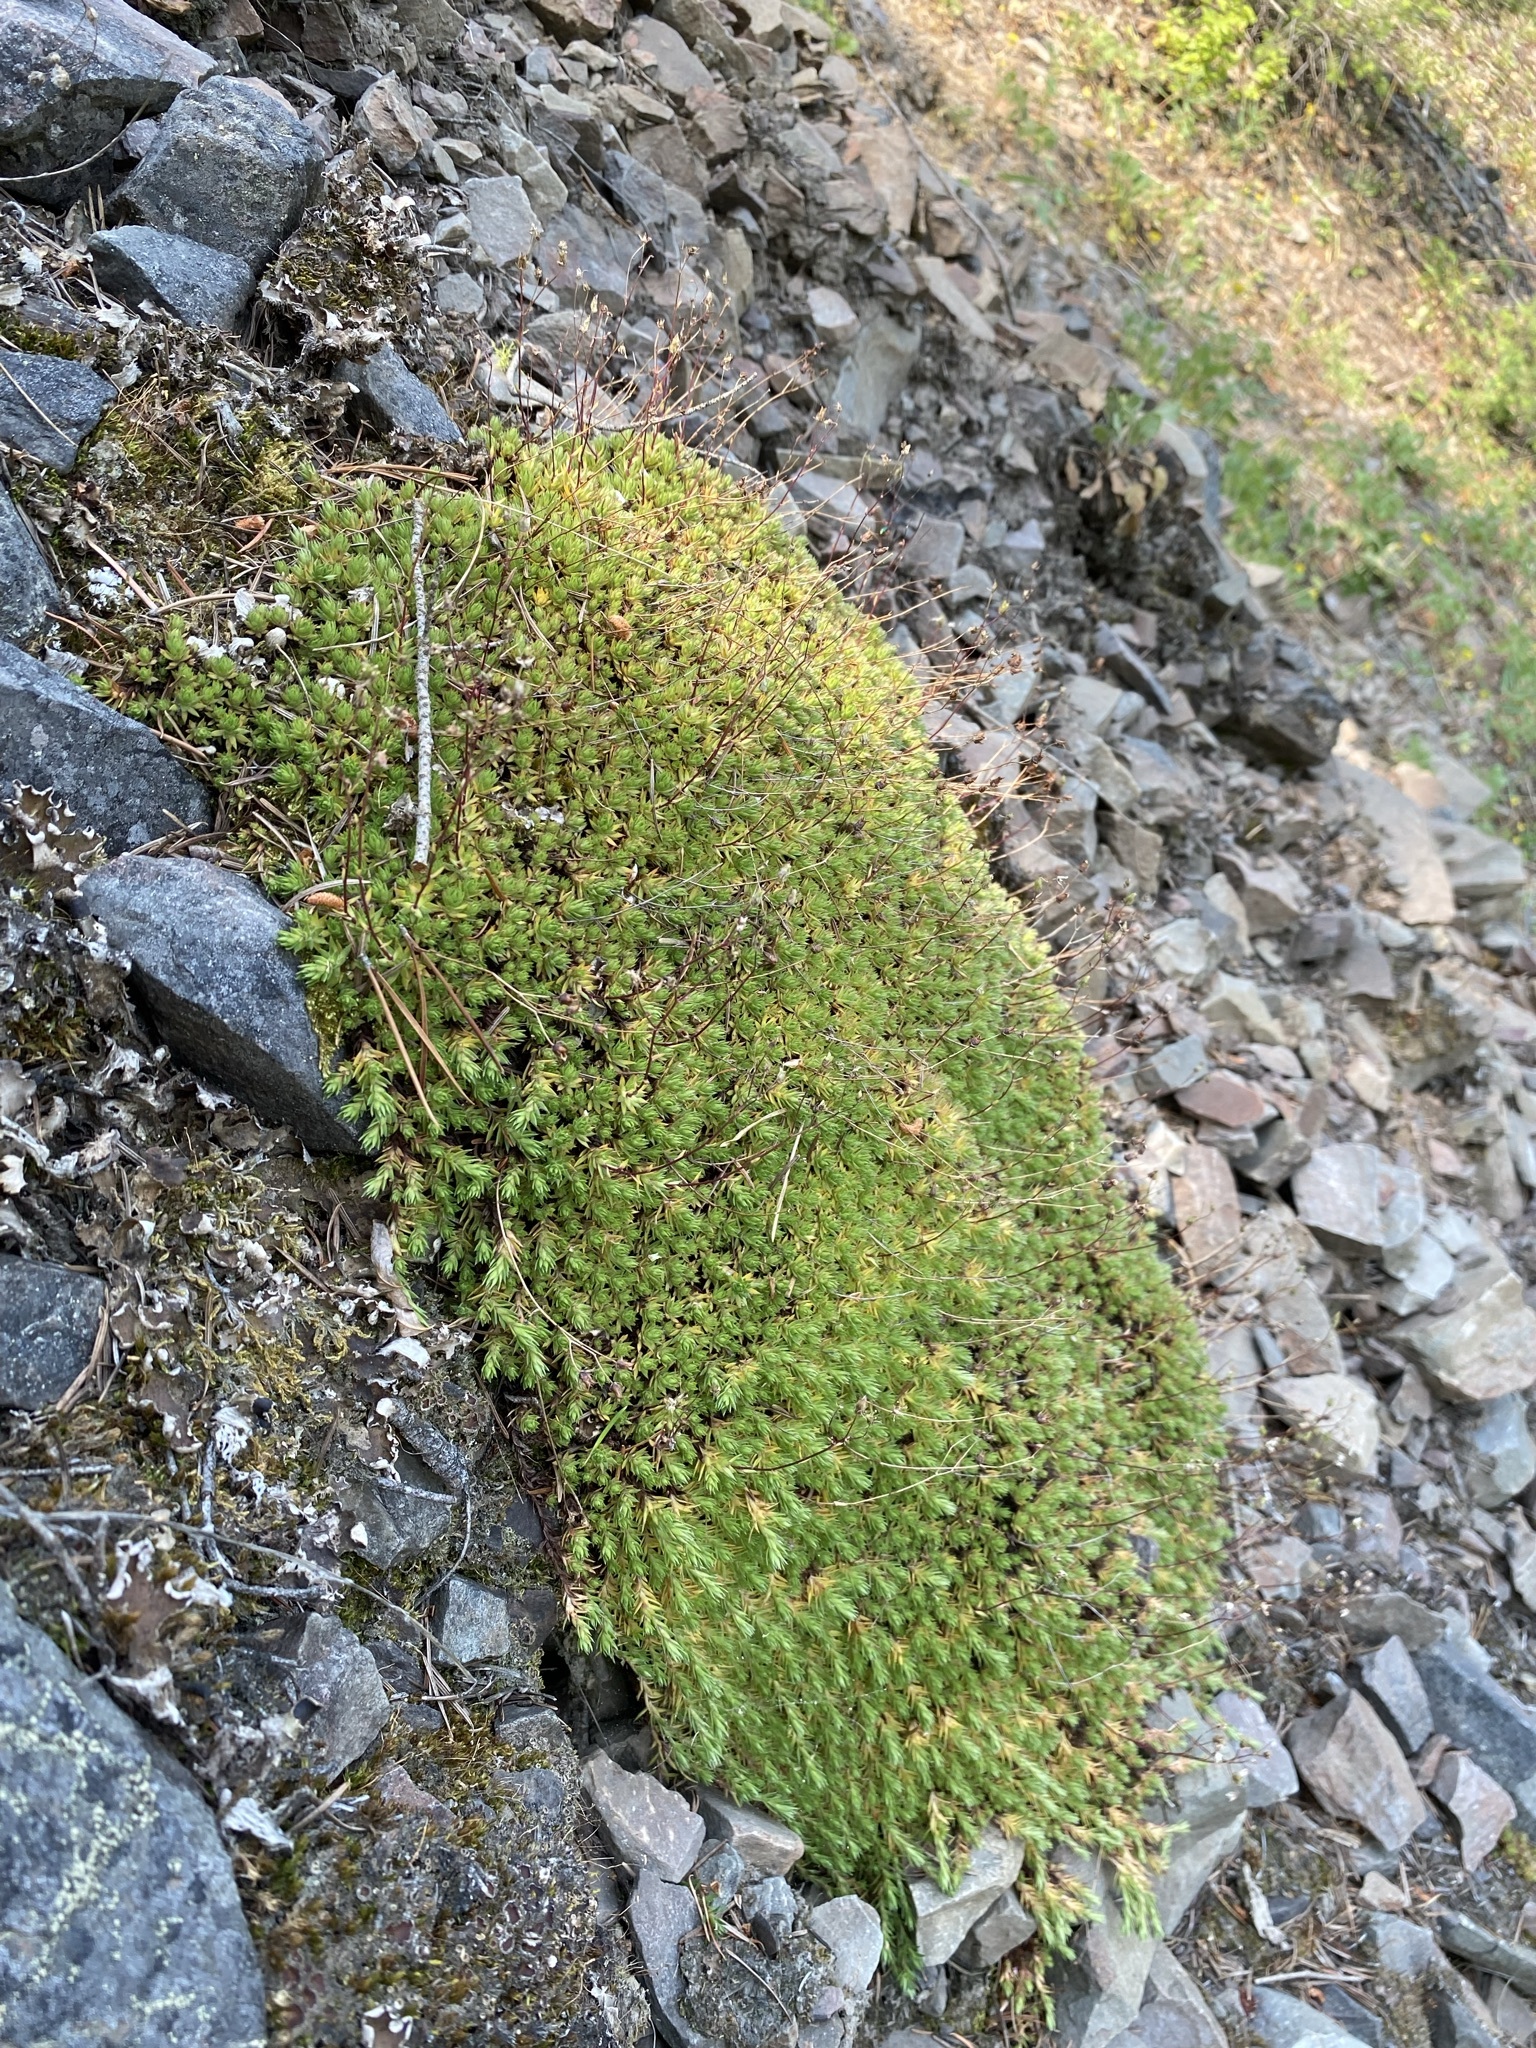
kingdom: Plantae
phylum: Tracheophyta
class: Magnoliopsida
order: Saxifragales
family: Saxifragaceae
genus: Saxifraga
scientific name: Saxifraga bronchialis
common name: Matted saxifrage
